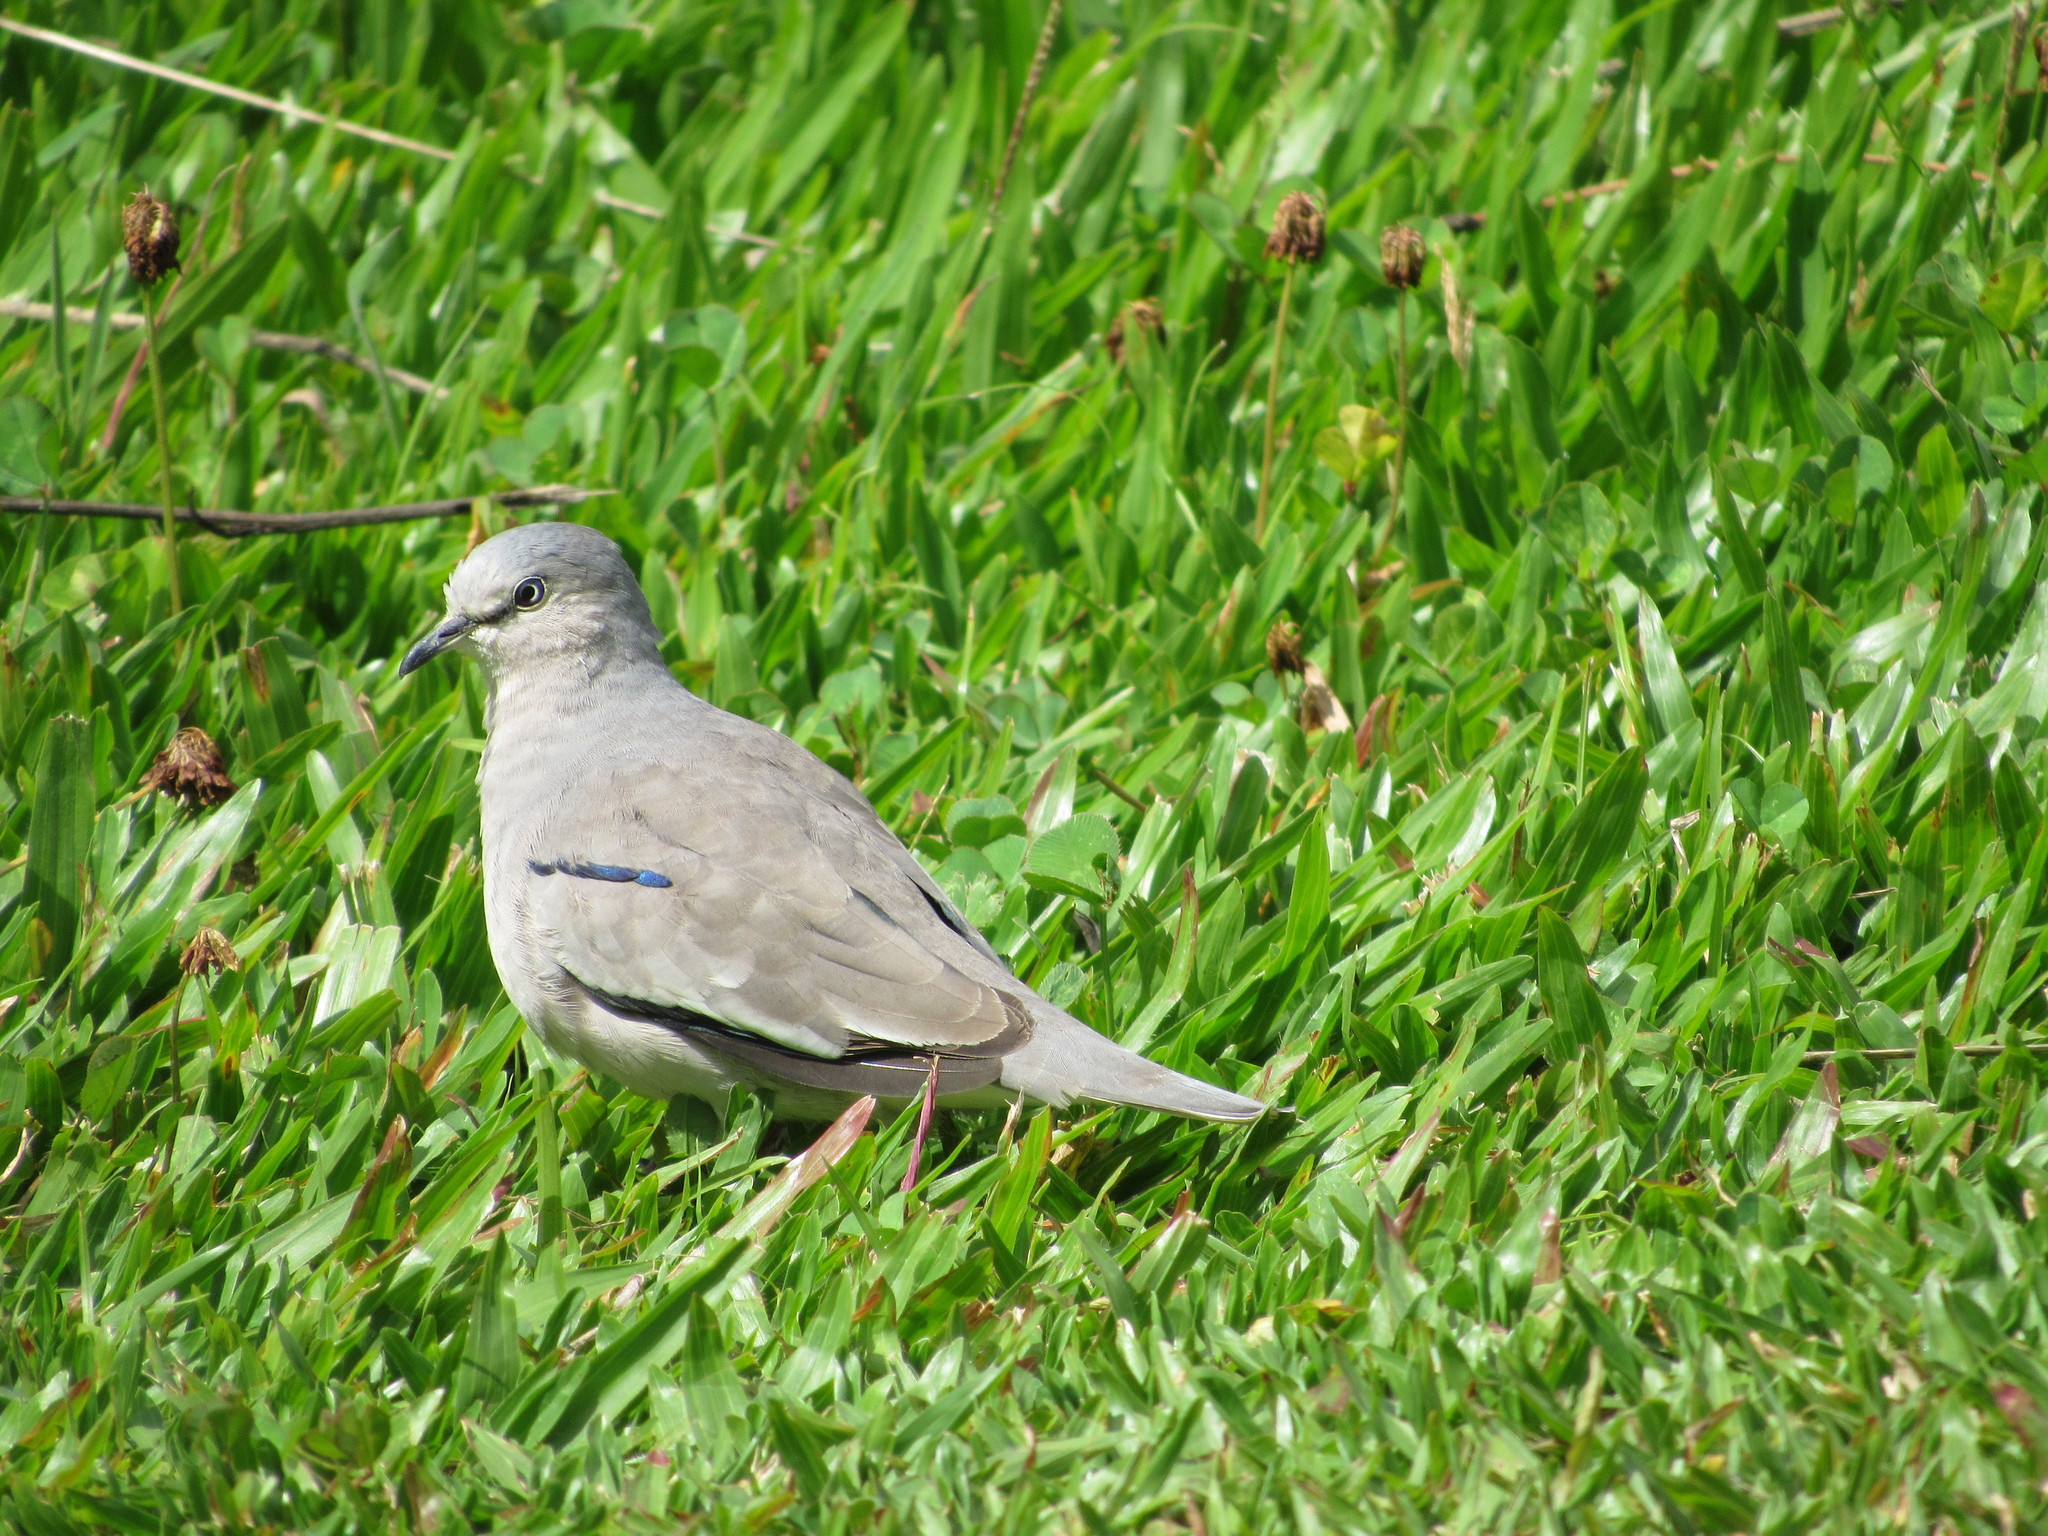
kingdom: Animalia
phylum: Chordata
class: Aves
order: Columbiformes
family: Columbidae
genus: Columbina
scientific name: Columbina picui
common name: Picui ground dove
